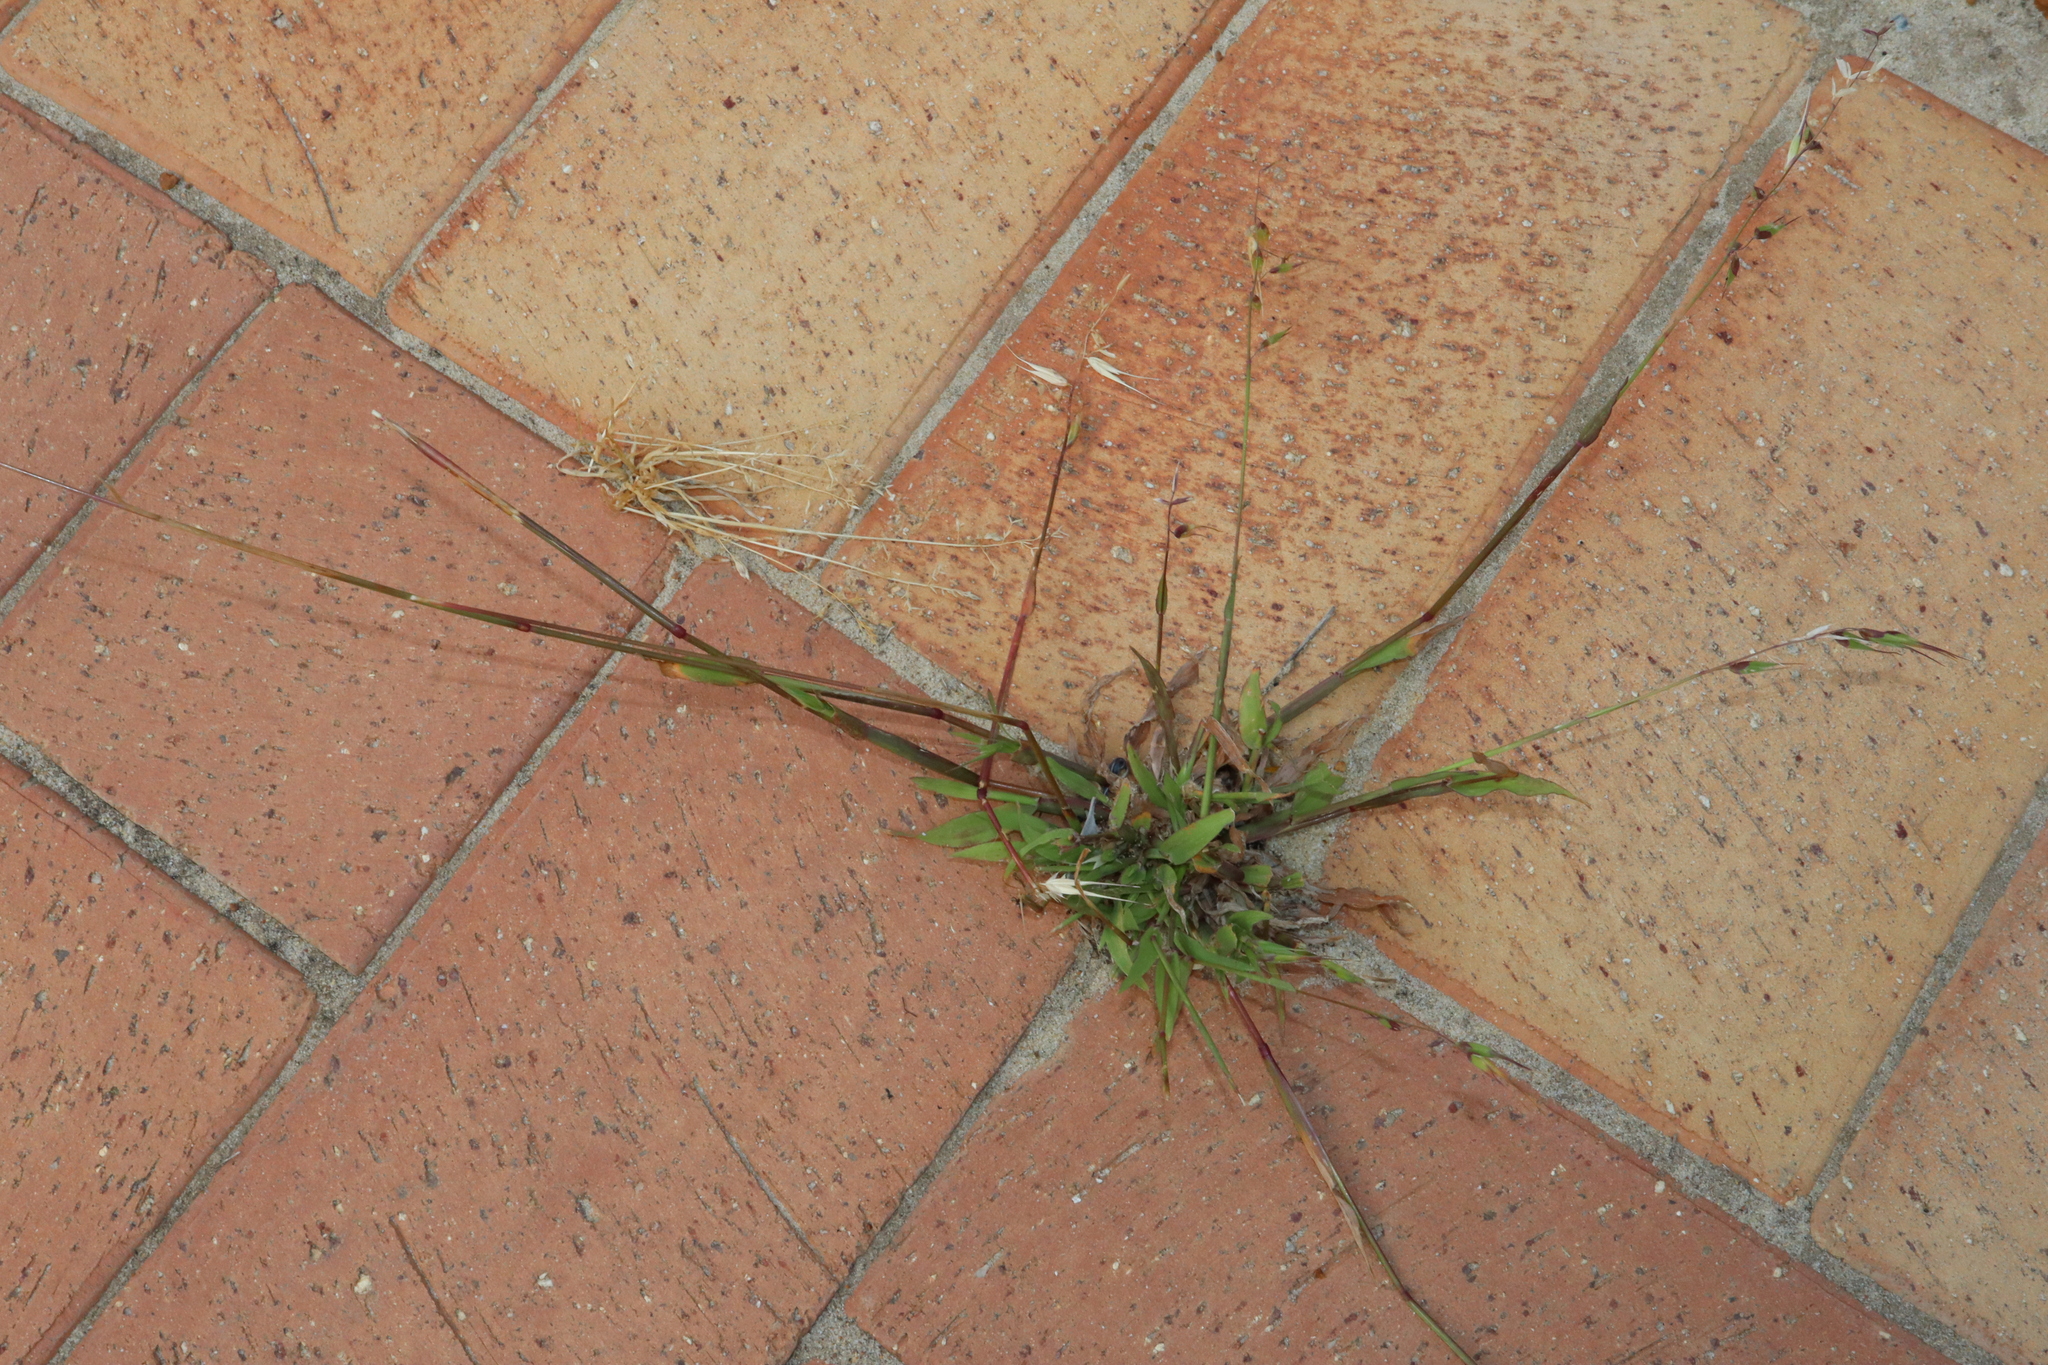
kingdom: Plantae
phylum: Tracheophyta
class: Liliopsida
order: Poales
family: Poaceae
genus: Ehrharta
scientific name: Ehrharta longiflora
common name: Longflowered veldtgrass
